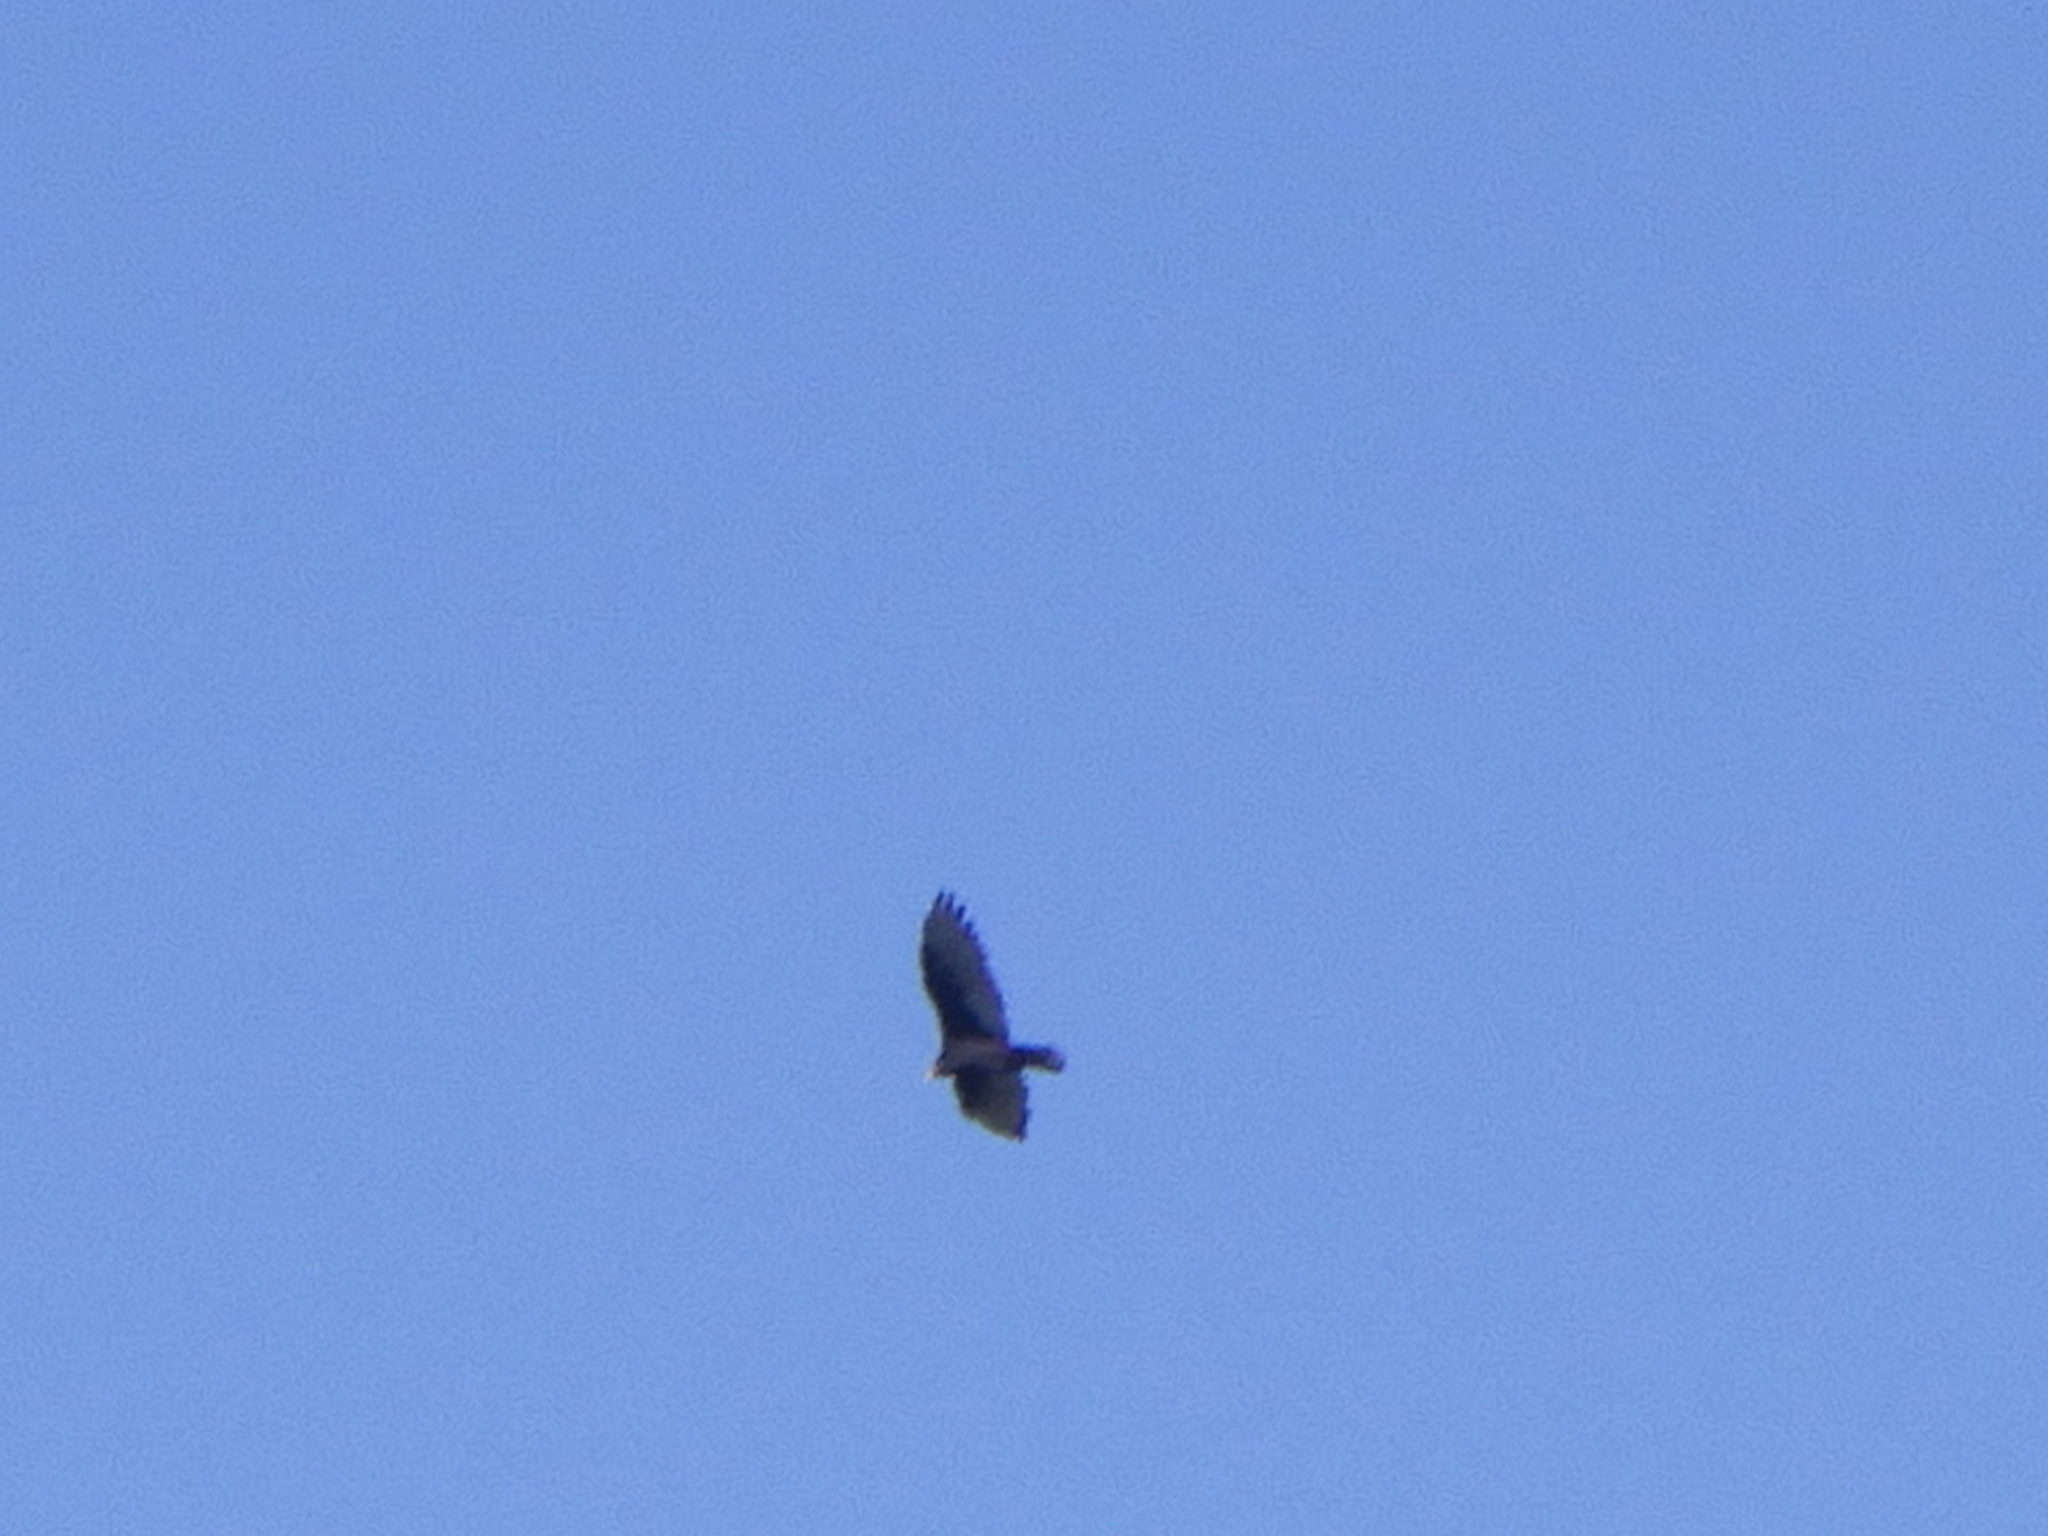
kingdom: Animalia
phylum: Chordata
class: Aves
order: Accipitriformes
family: Cathartidae
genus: Cathartes
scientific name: Cathartes aura
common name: Turkey vulture
